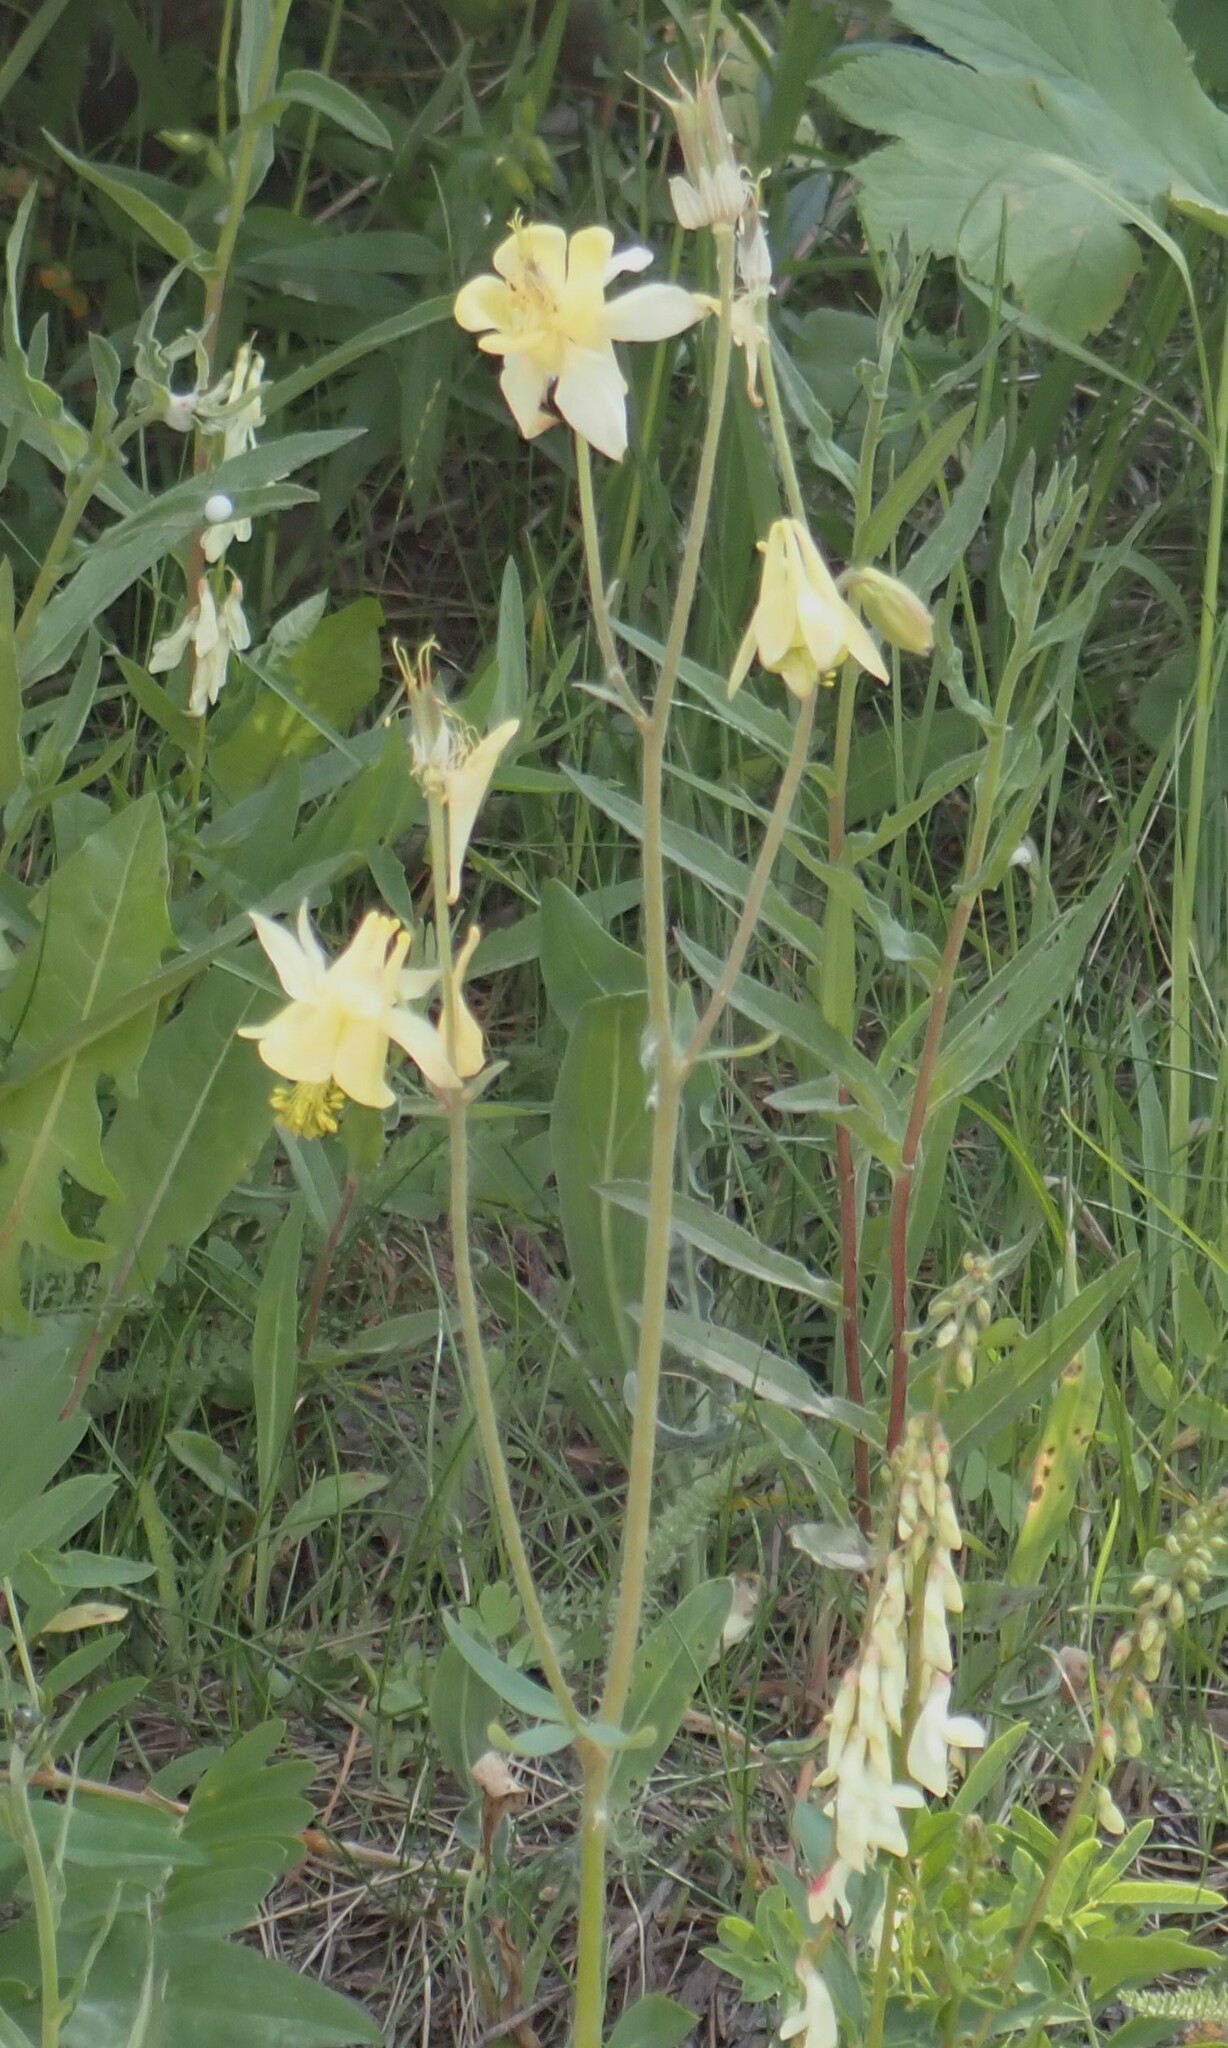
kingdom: Plantae
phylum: Tracheophyta
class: Magnoliopsida
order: Ranunculales
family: Ranunculaceae
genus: Aquilegia
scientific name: Aquilegia flavescens
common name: Yellow columbine
